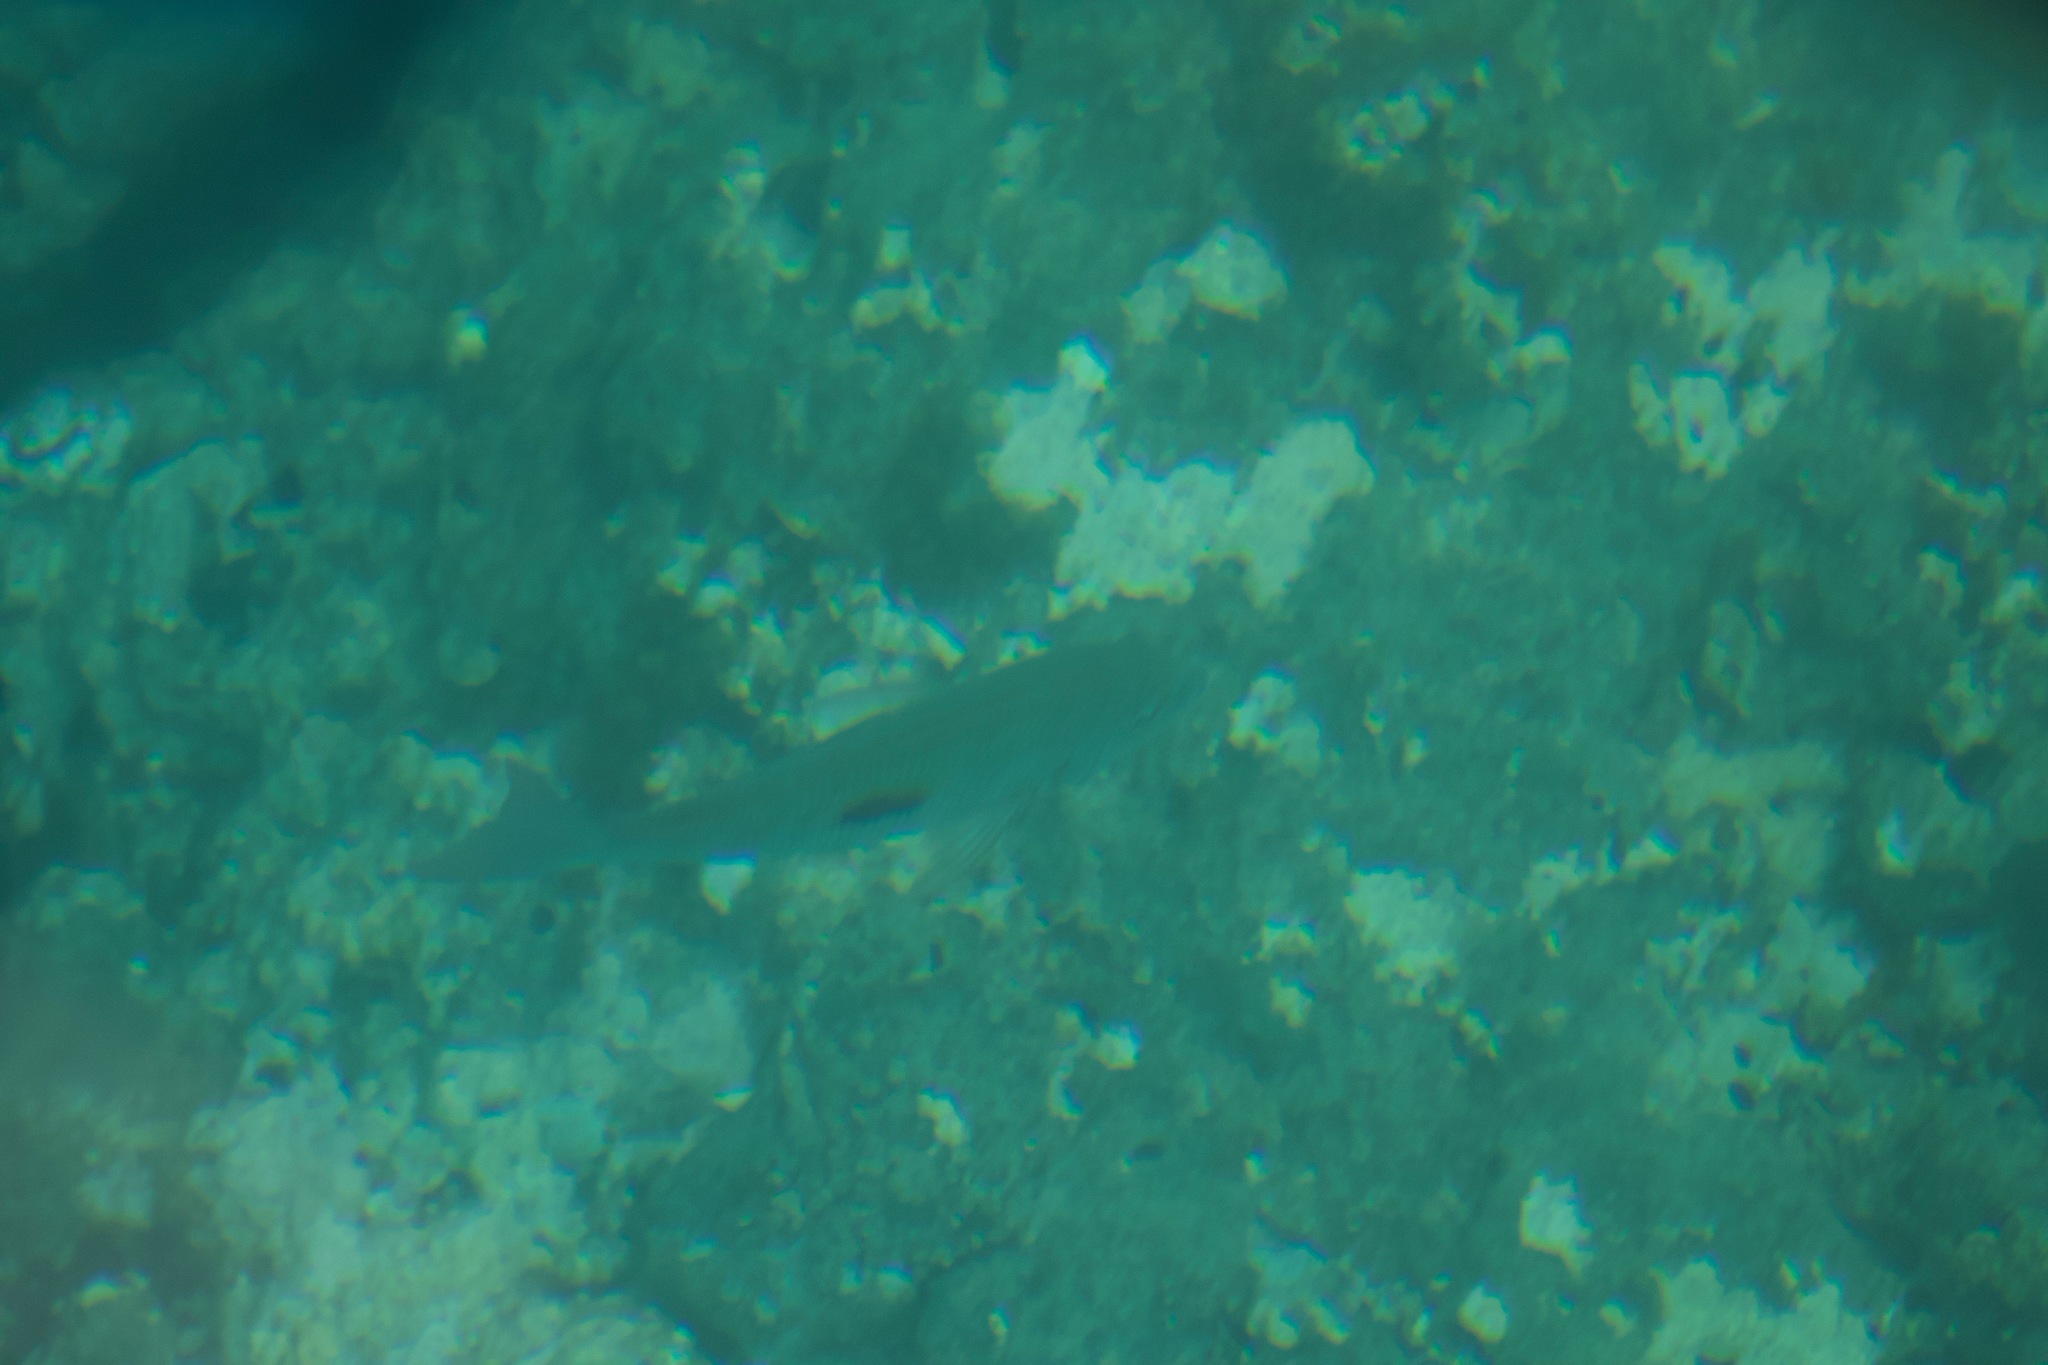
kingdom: Animalia
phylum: Chordata
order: Perciformes
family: Lethrinidae
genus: Lethrinus
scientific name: Lethrinus harak
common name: Blackspot emperor
